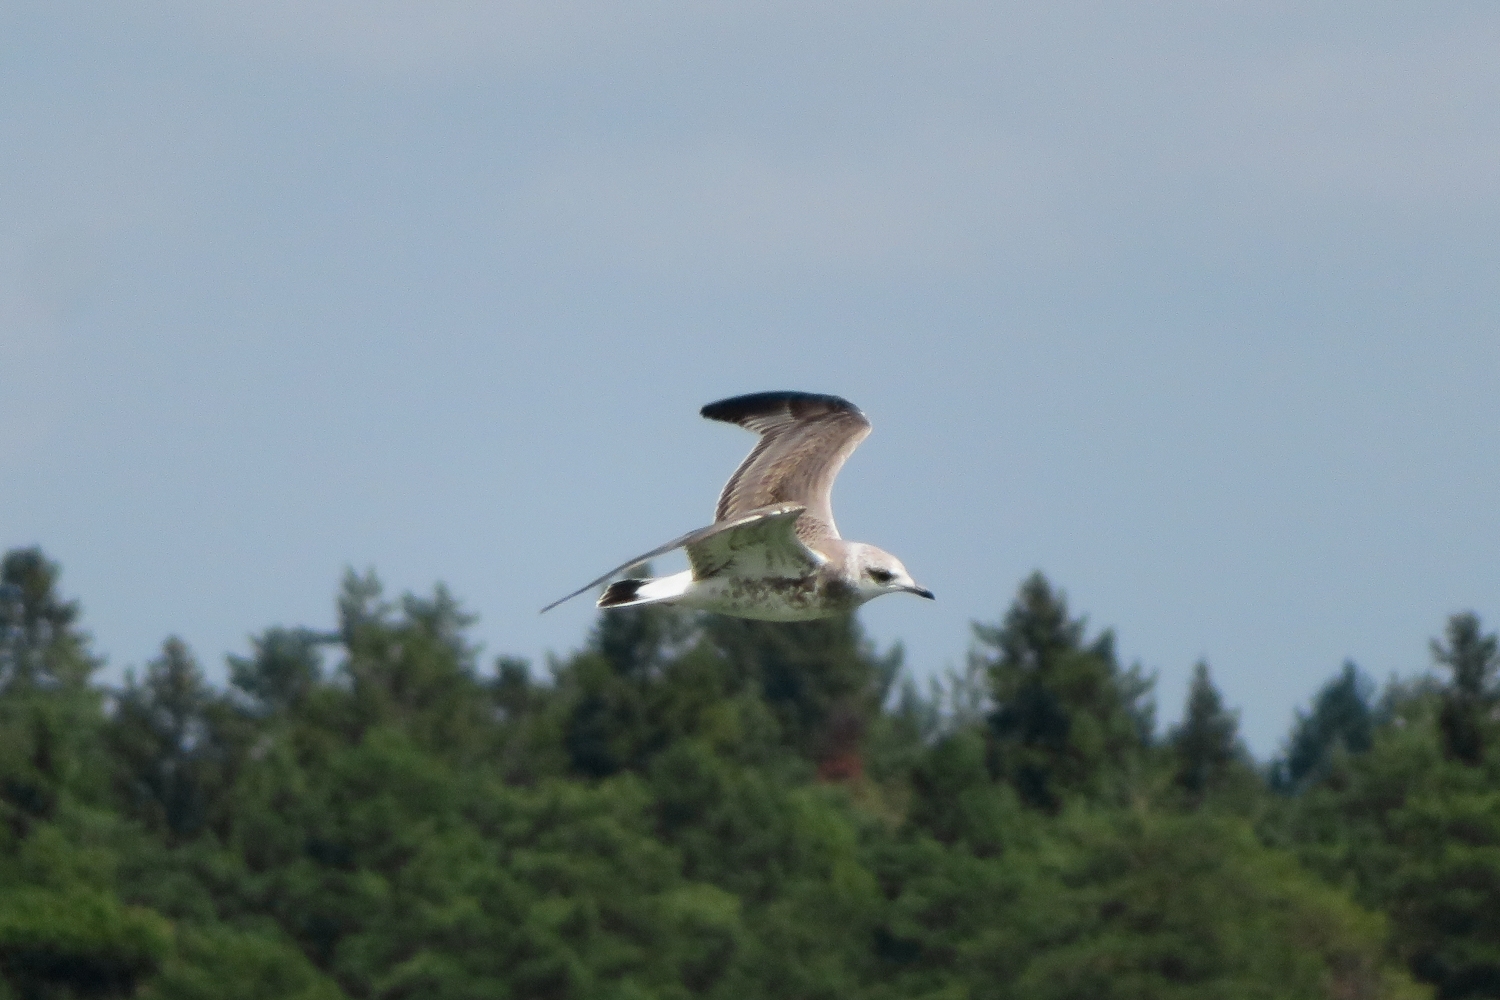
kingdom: Animalia
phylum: Chordata
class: Aves
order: Charadriiformes
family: Laridae
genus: Larus
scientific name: Larus canus
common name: Mew gull
